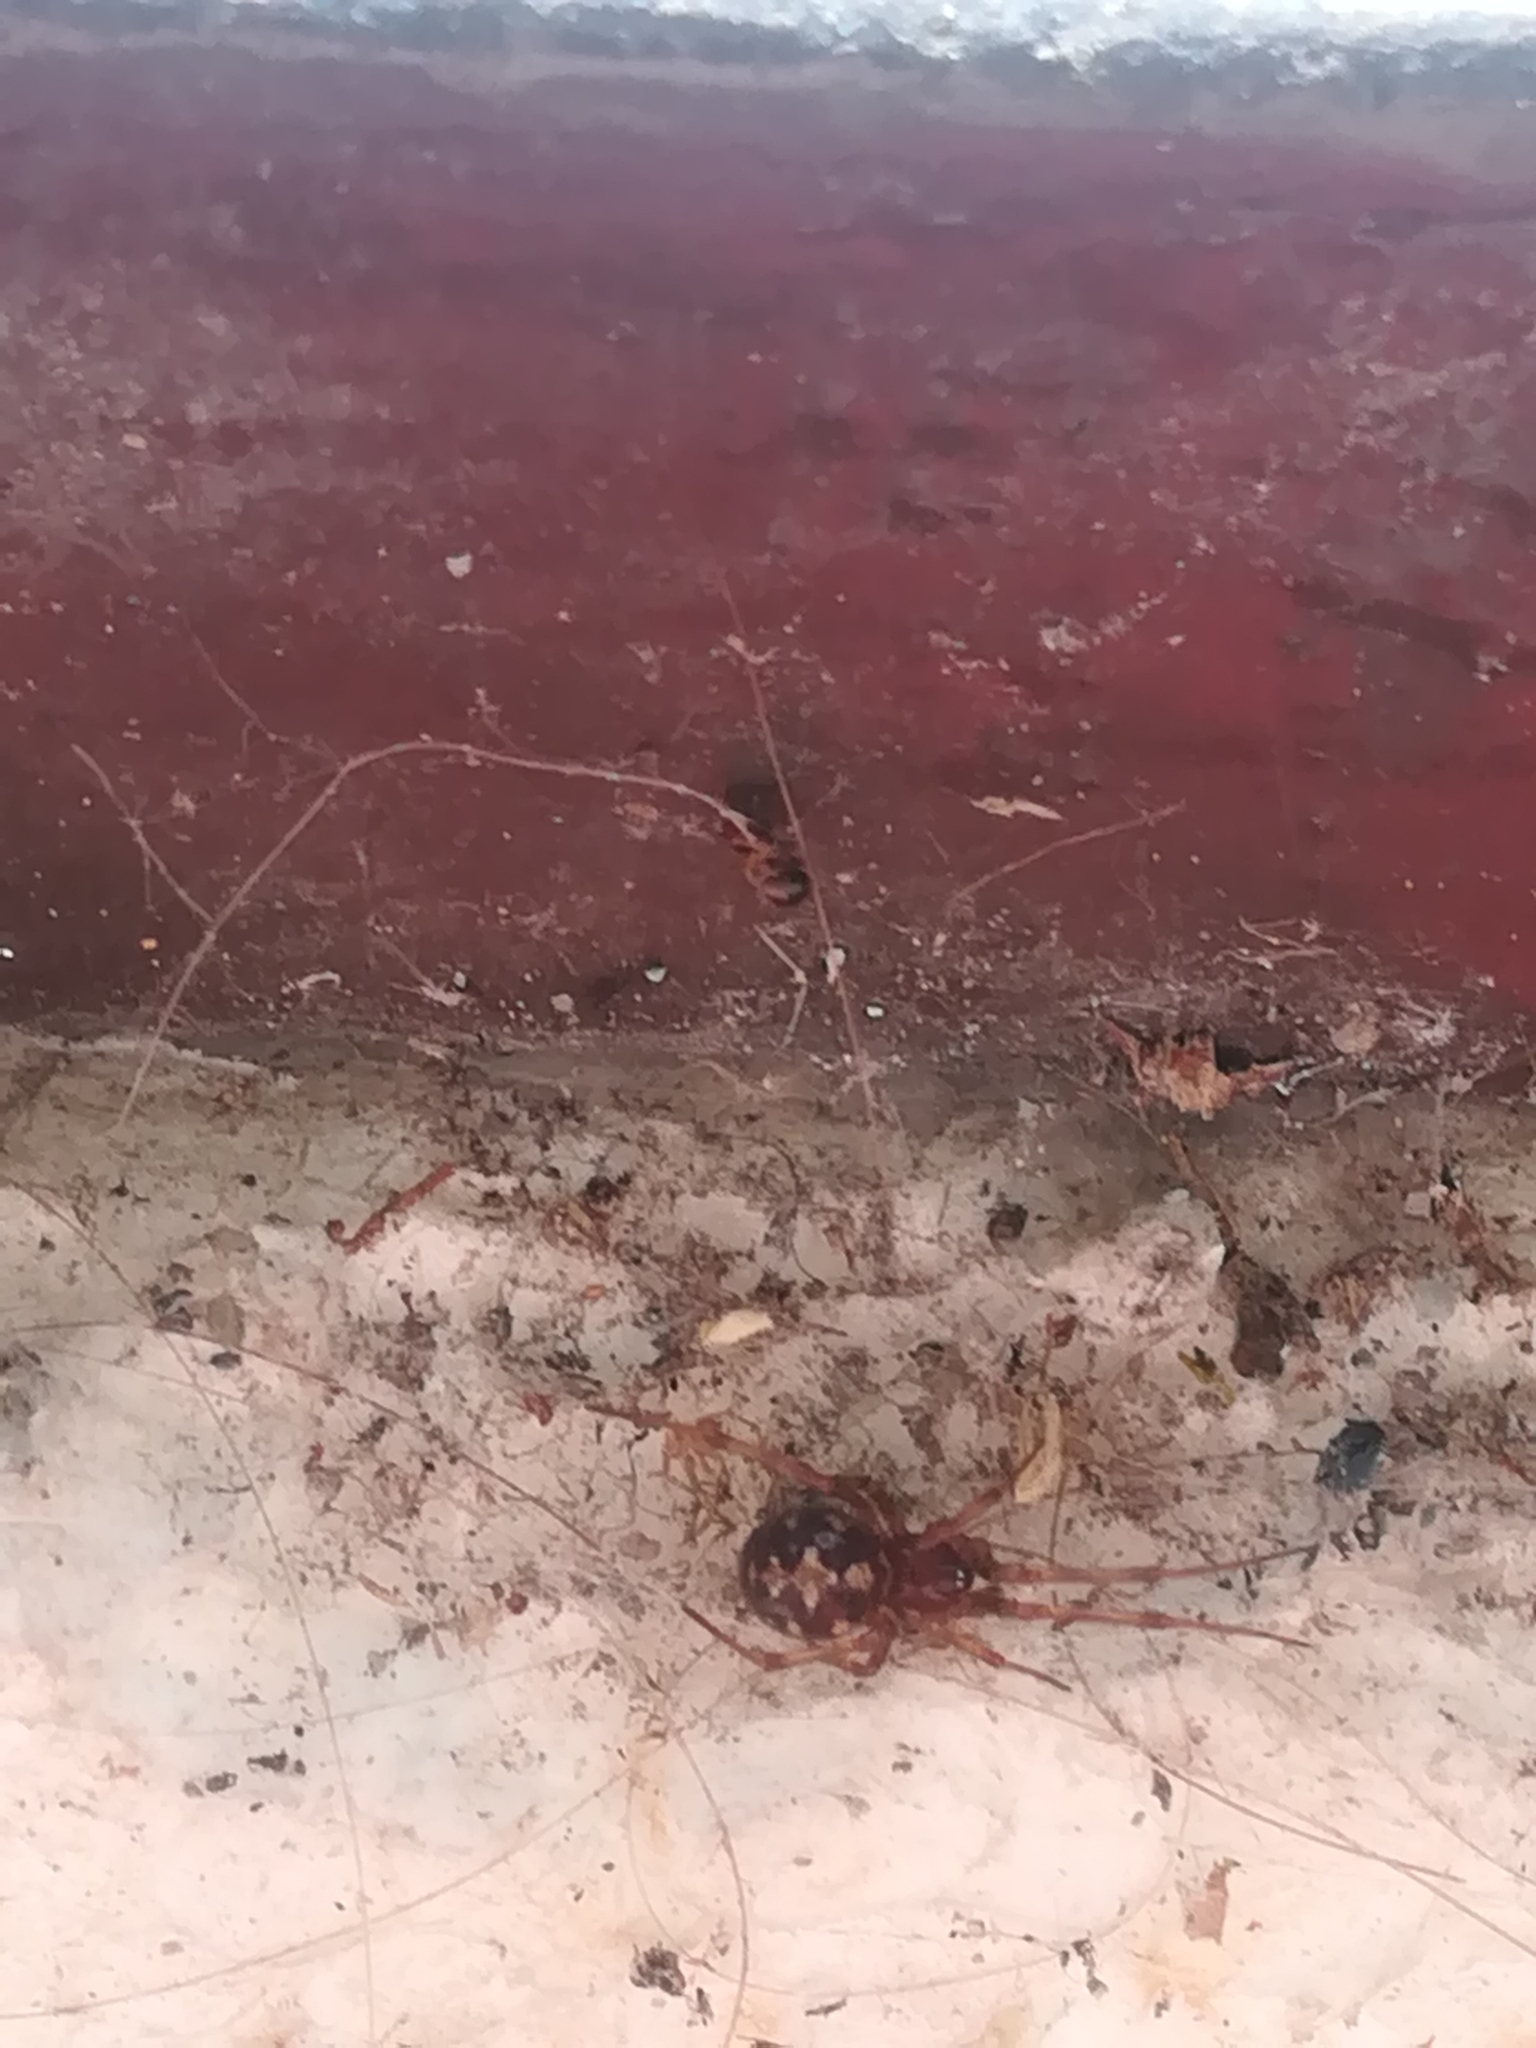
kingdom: Animalia
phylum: Arthropoda
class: Arachnida
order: Araneae
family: Theridiidae
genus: Steatoda
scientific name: Steatoda triangulosa
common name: Triangulate bud spider
